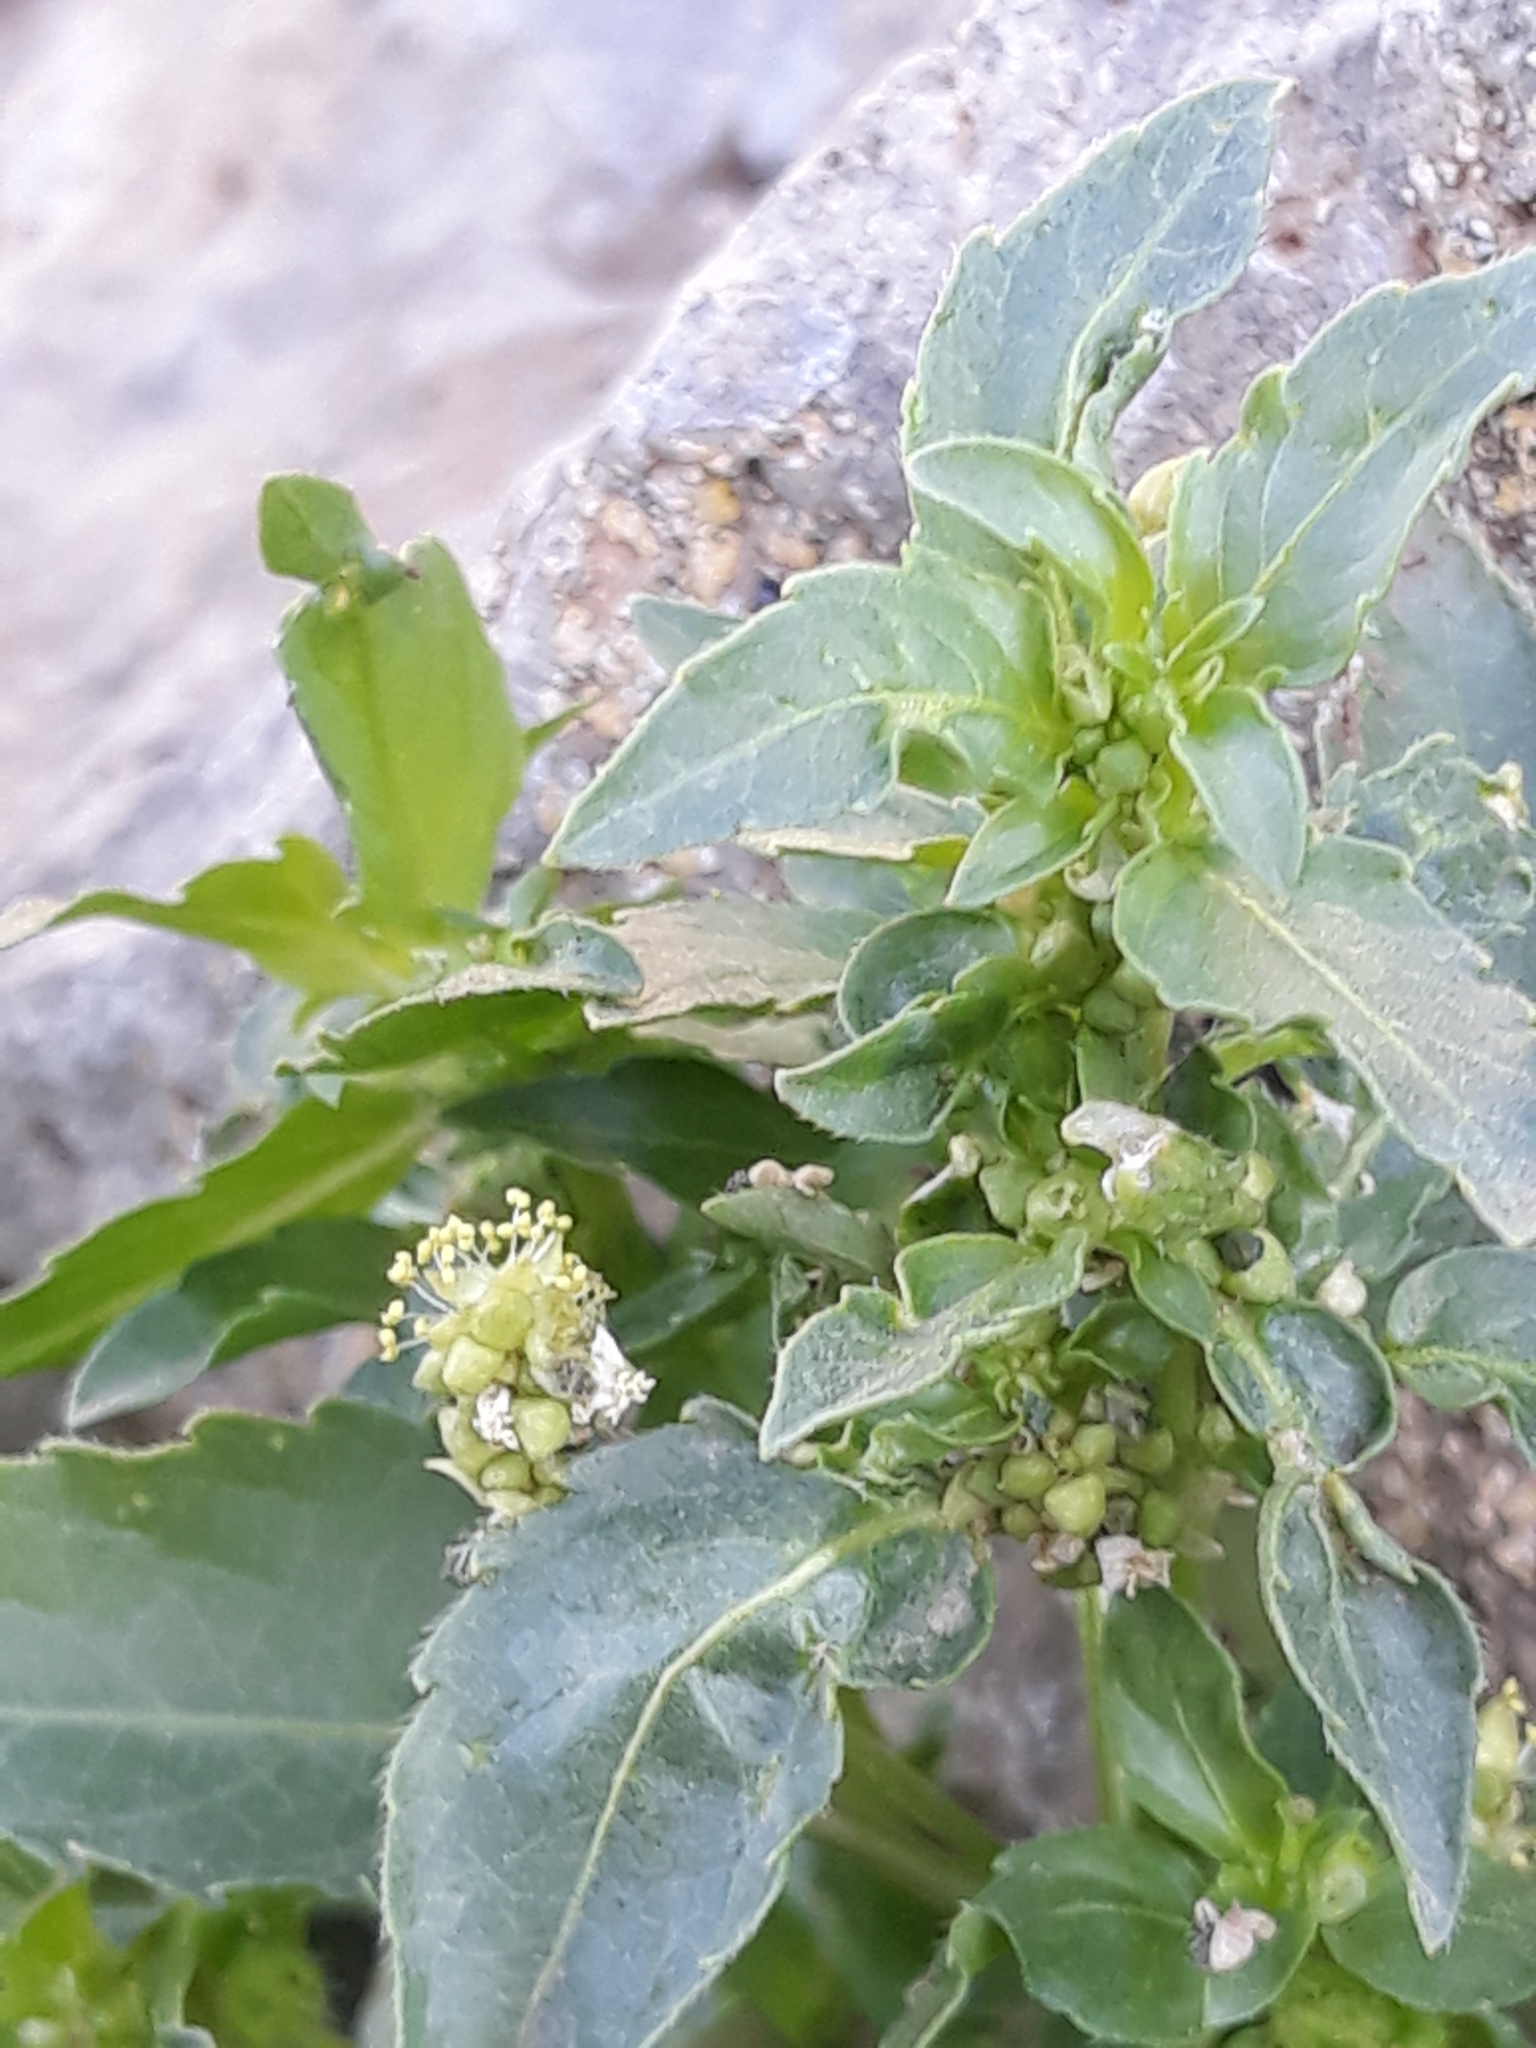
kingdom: Plantae
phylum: Tracheophyta
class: Magnoliopsida
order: Malpighiales
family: Euphorbiaceae
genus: Mercurialis
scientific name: Mercurialis annua
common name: Annual mercury
